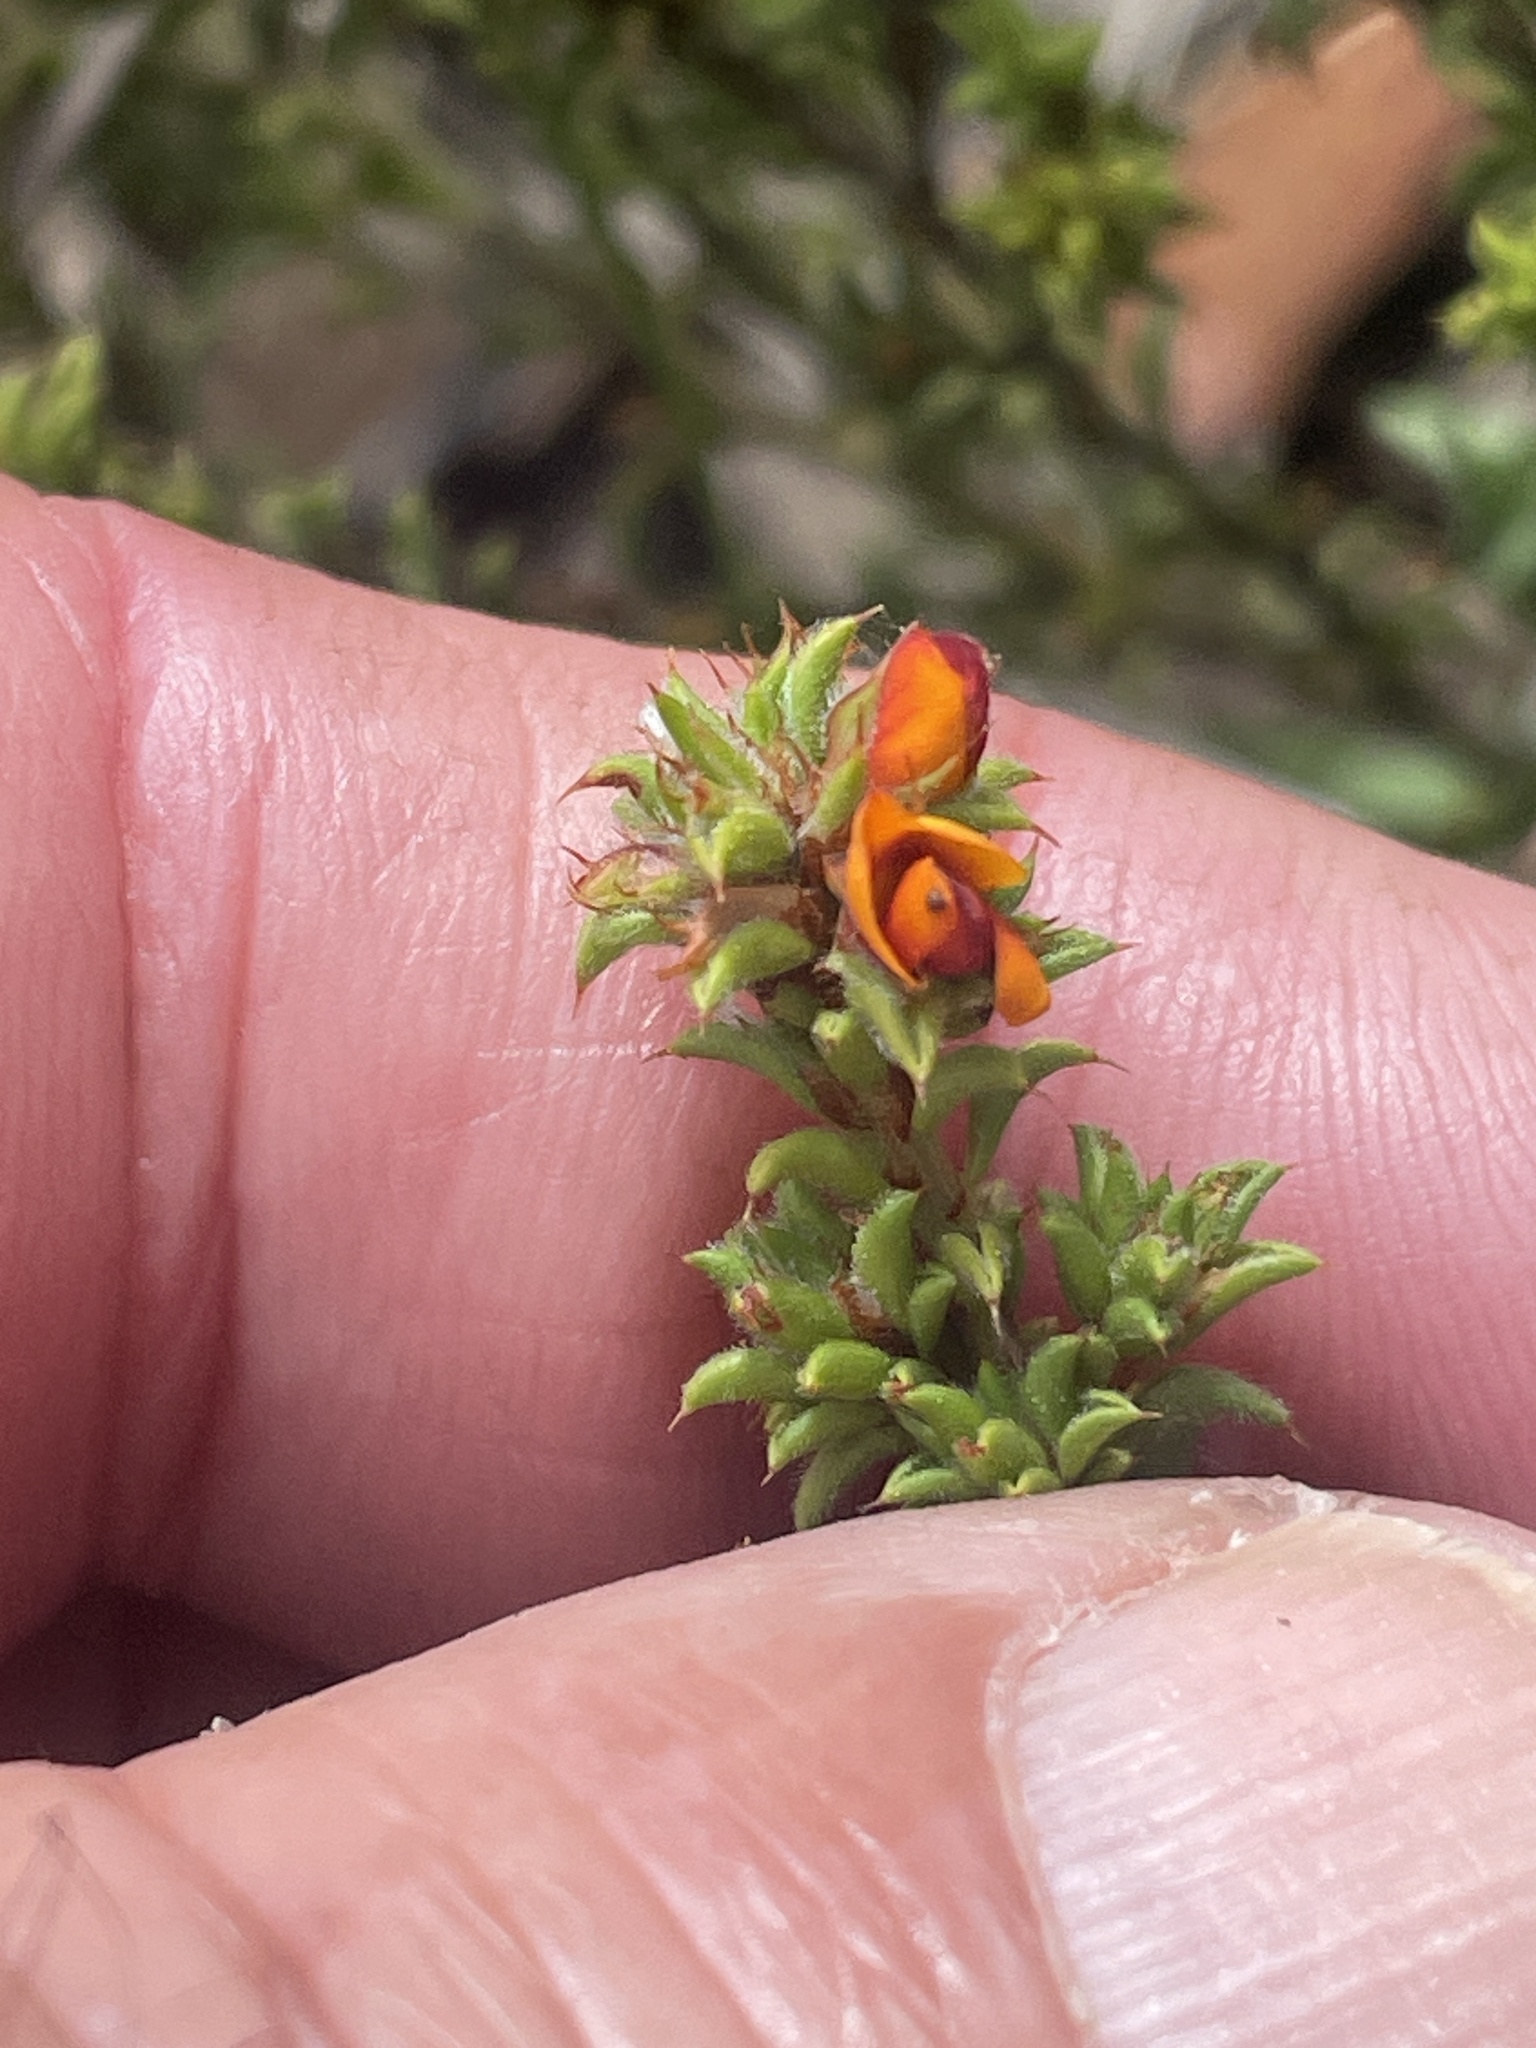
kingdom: Plantae
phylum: Tracheophyta
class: Magnoliopsida
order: Fabales
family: Fabaceae
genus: Pultenaea
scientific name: Pultenaea procumbens
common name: Heathy bush-pea
